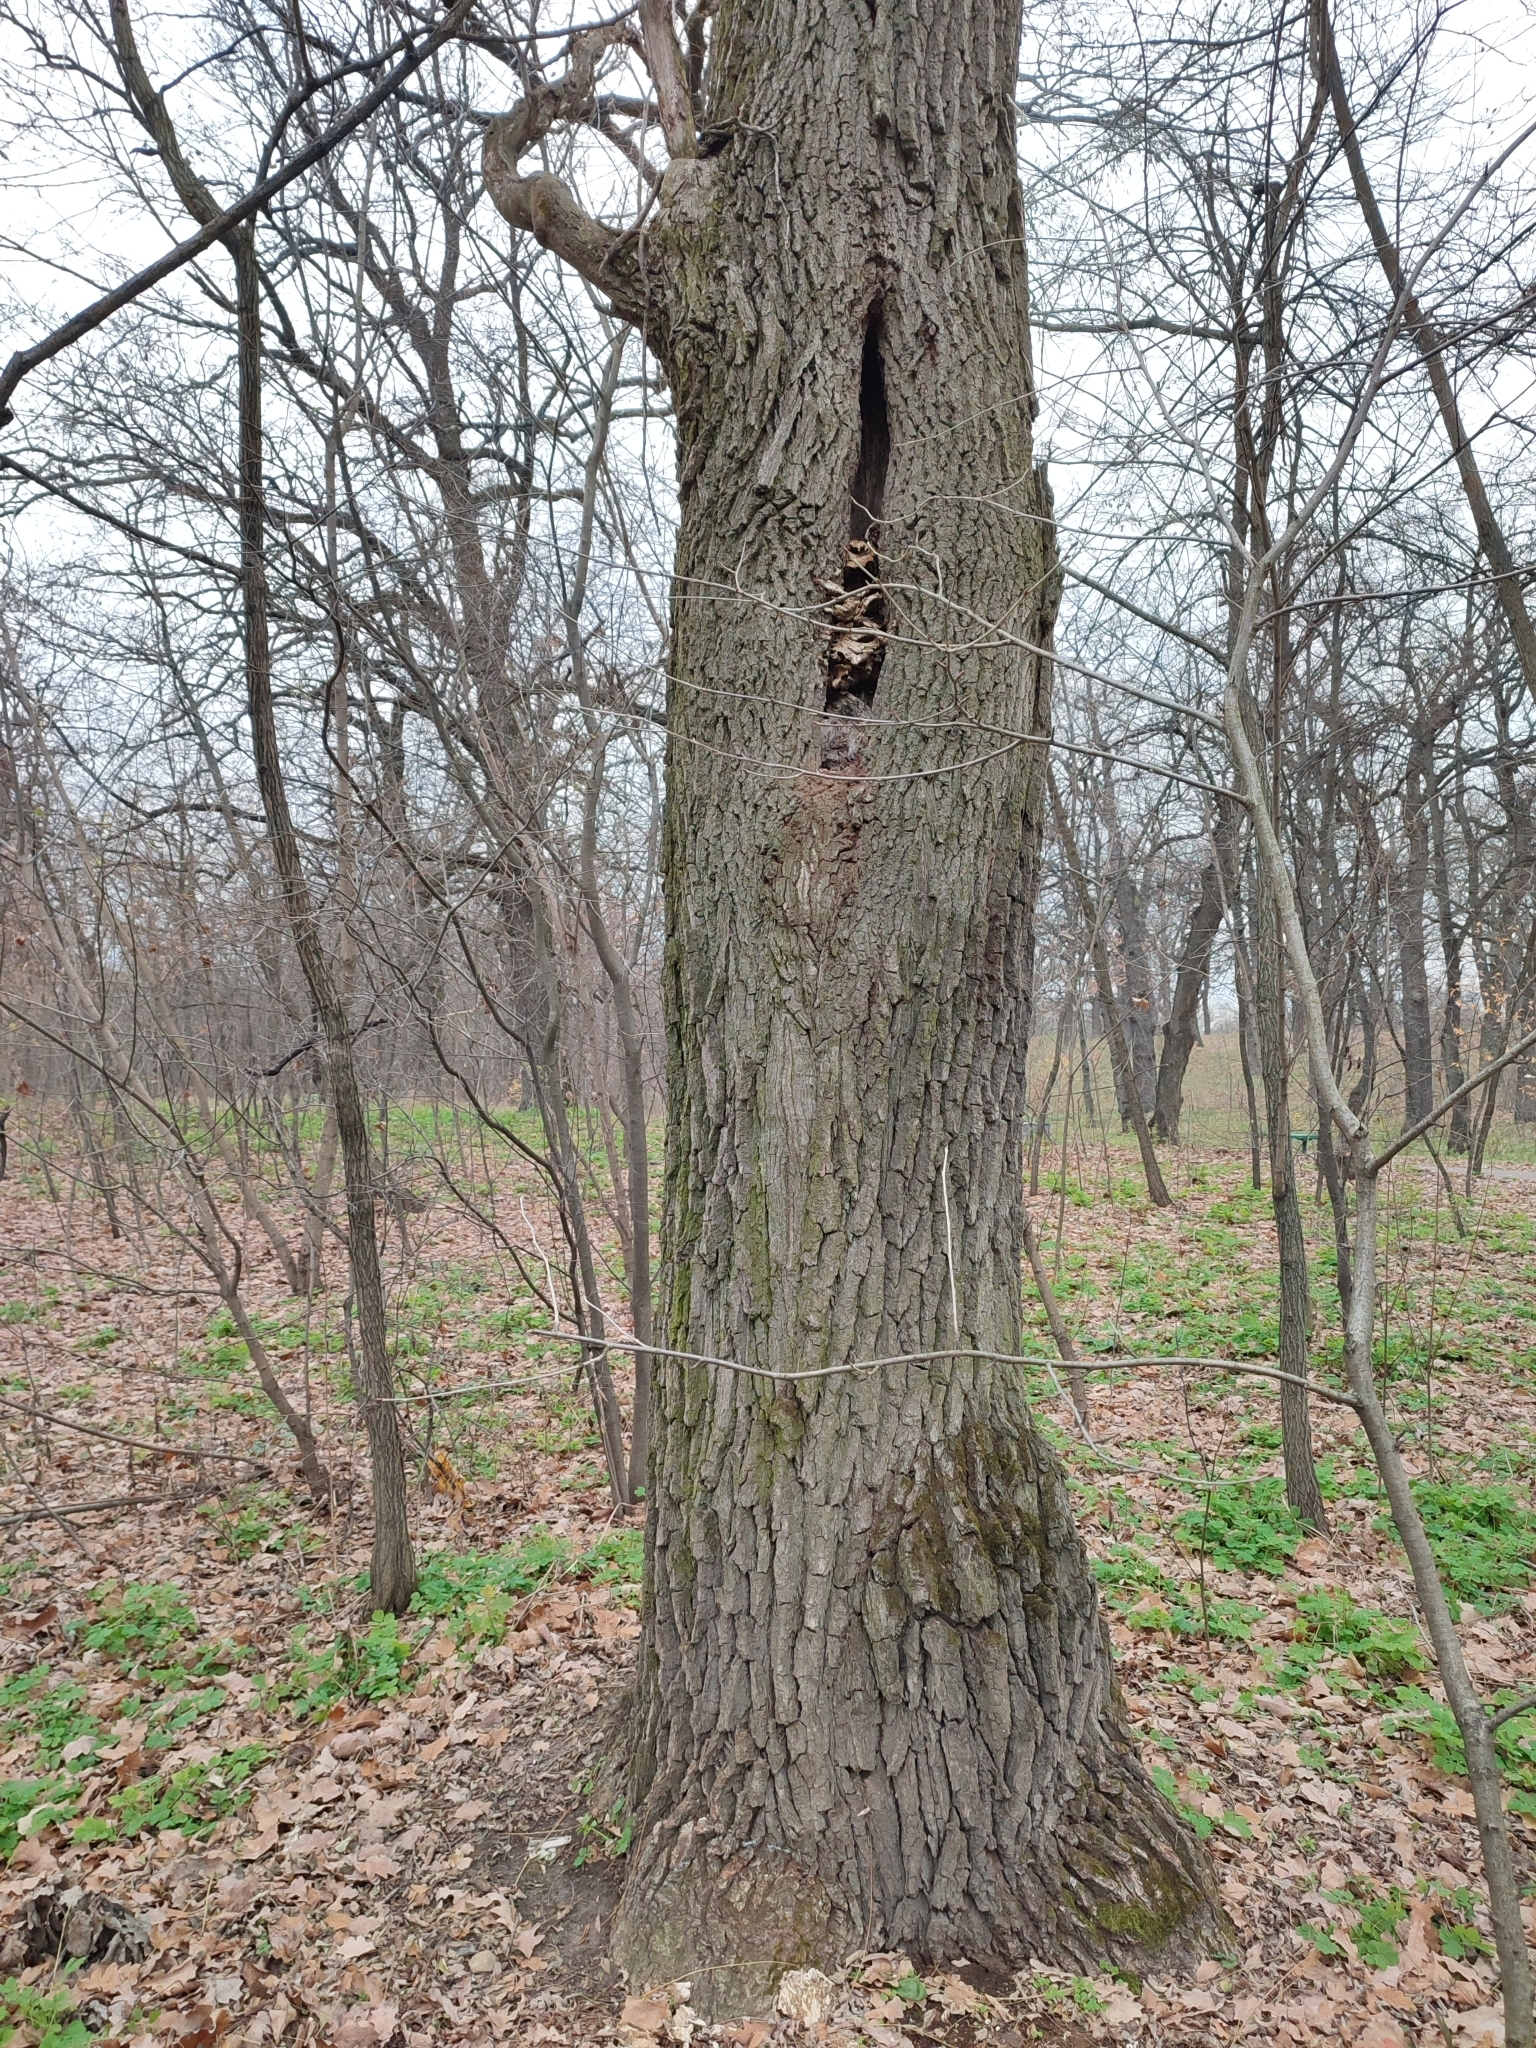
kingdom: Plantae
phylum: Tracheophyta
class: Magnoliopsida
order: Fagales
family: Fagaceae
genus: Quercus
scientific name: Quercus robur
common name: Pedunculate oak
